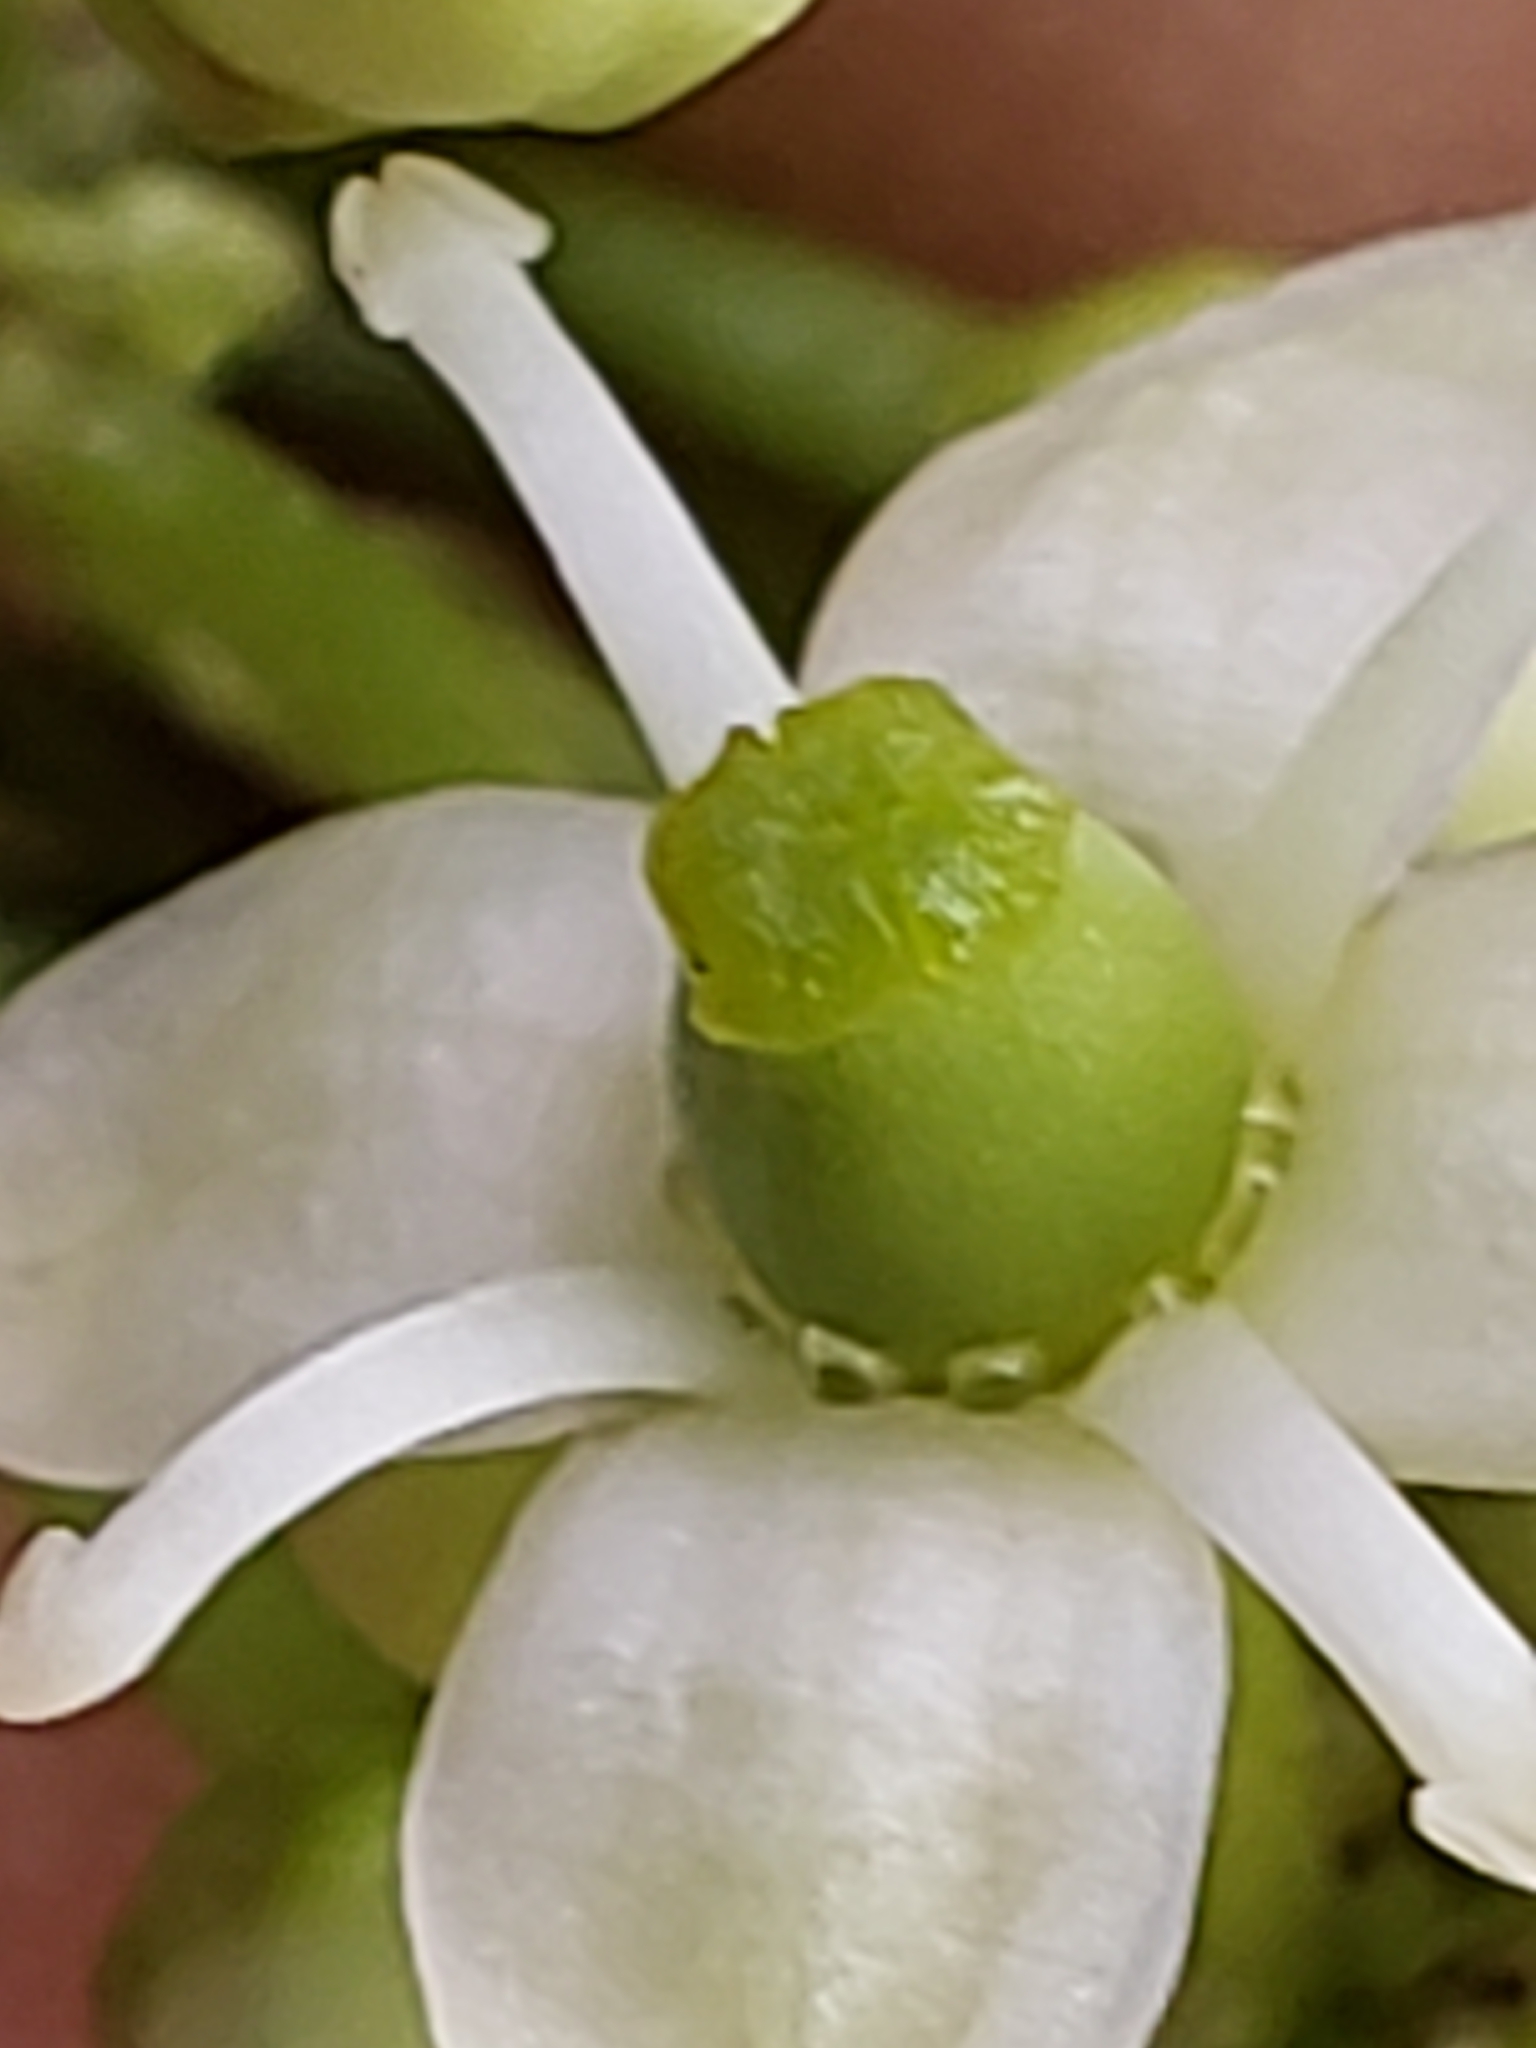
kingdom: Plantae
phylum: Tracheophyta
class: Magnoliopsida
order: Aquifoliales
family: Aquifoliaceae
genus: Ilex
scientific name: Ilex opaca
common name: American holly
